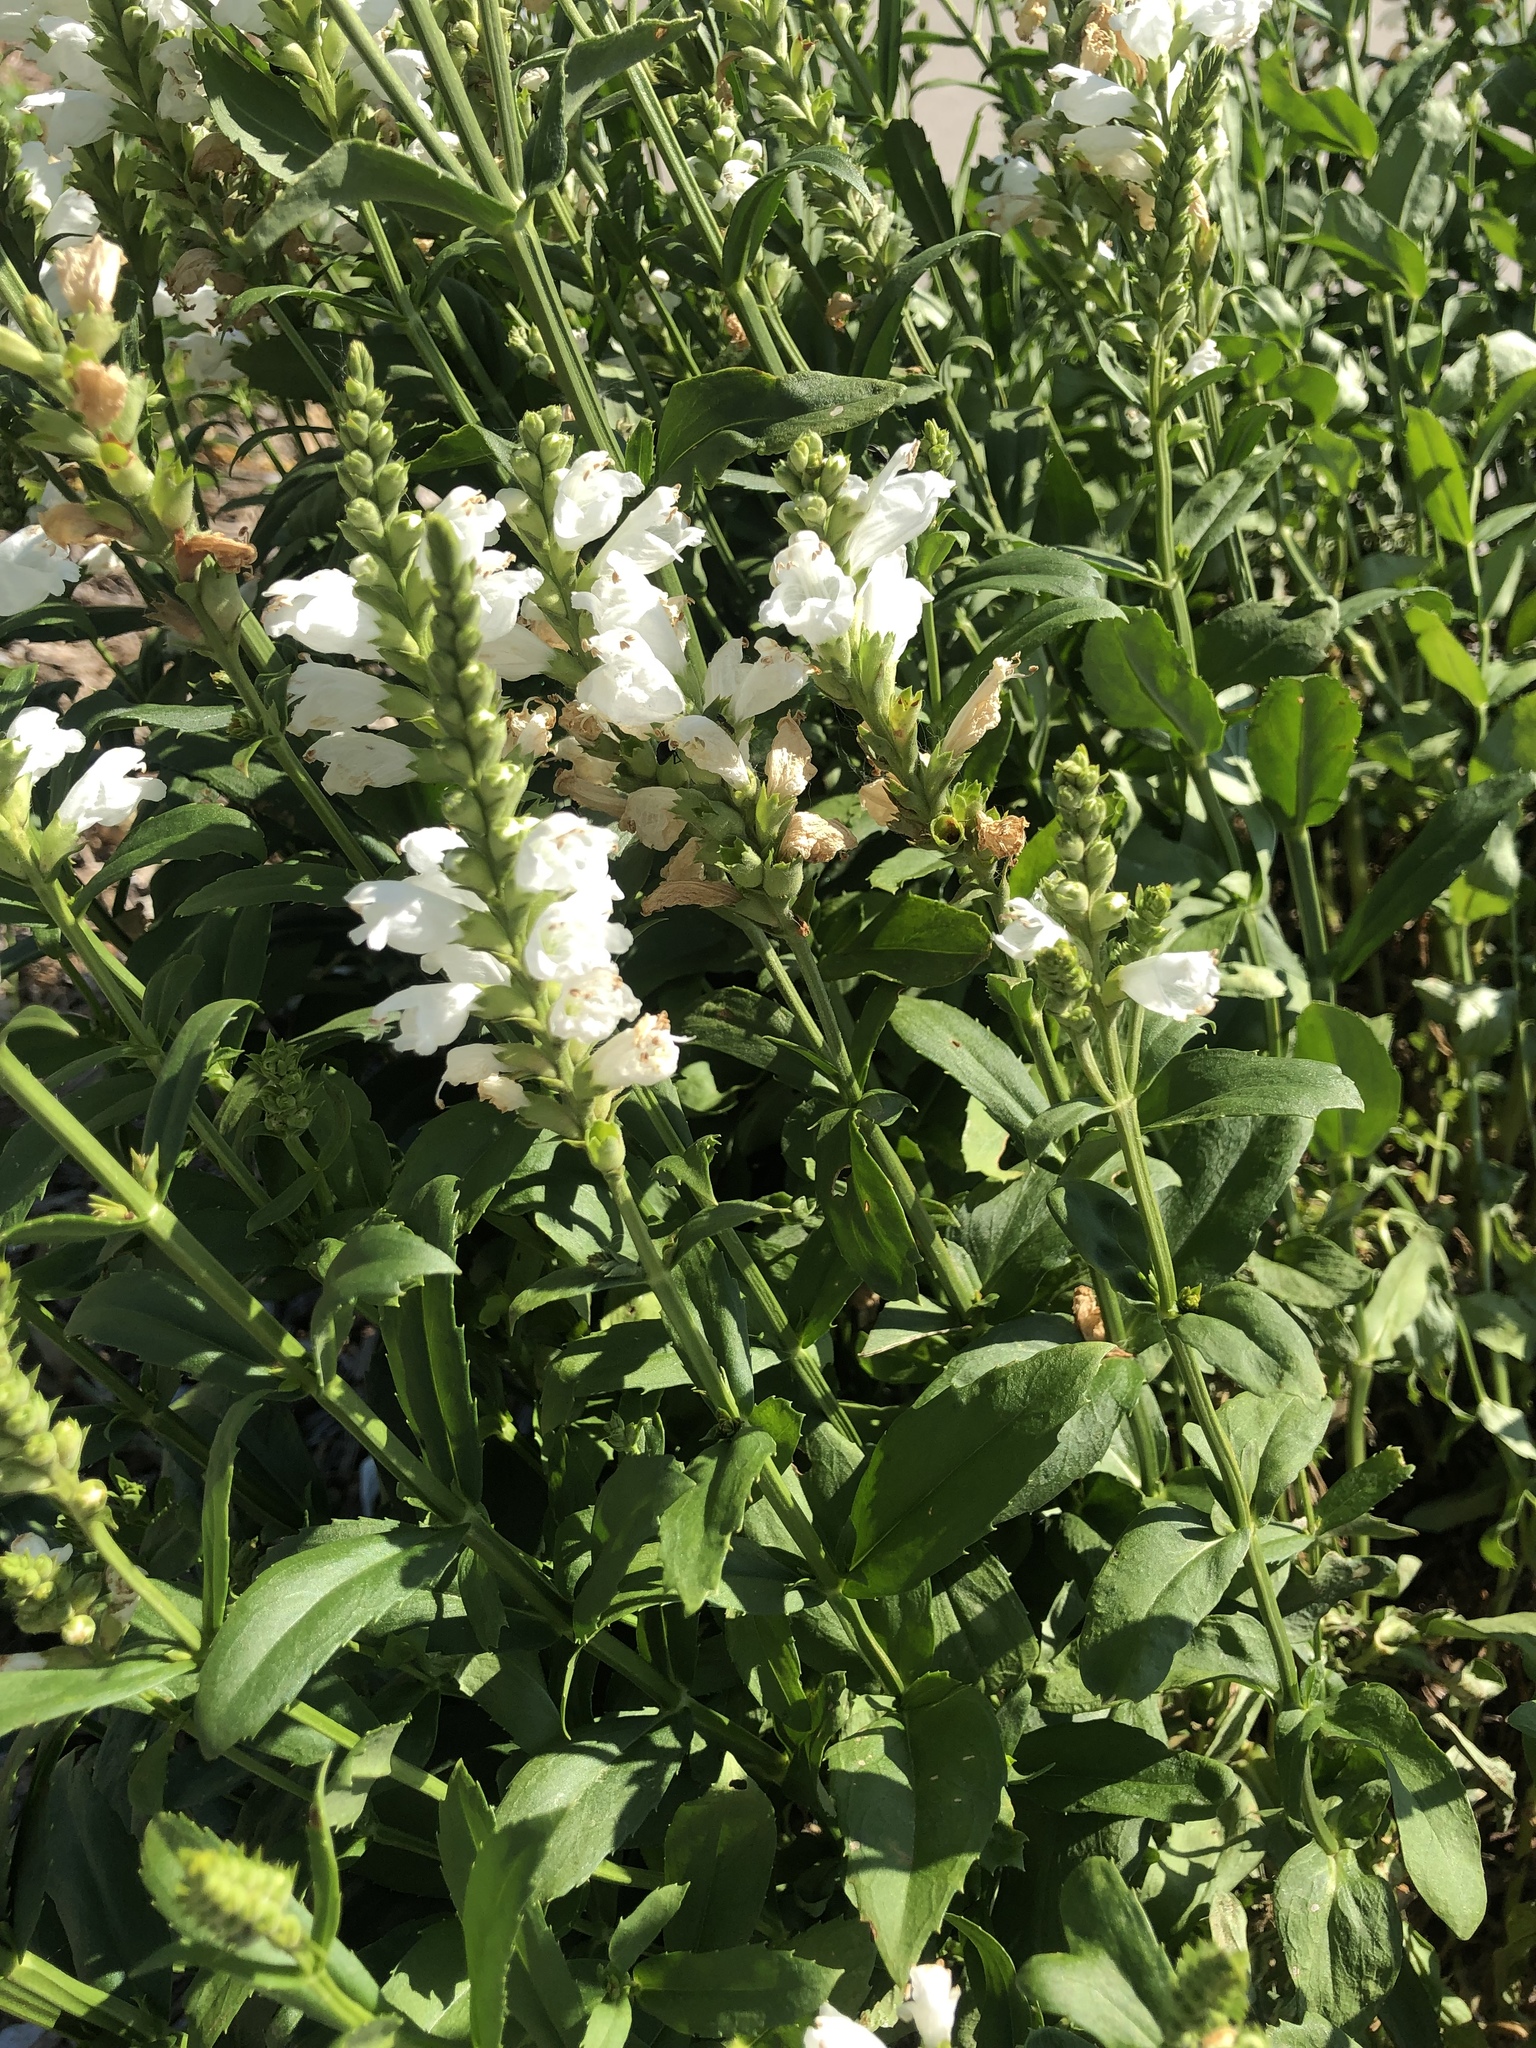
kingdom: Plantae
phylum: Tracheophyta
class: Magnoliopsida
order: Lamiales
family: Lamiaceae
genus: Physostegia
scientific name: Physostegia virginiana
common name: Obedient-plant
